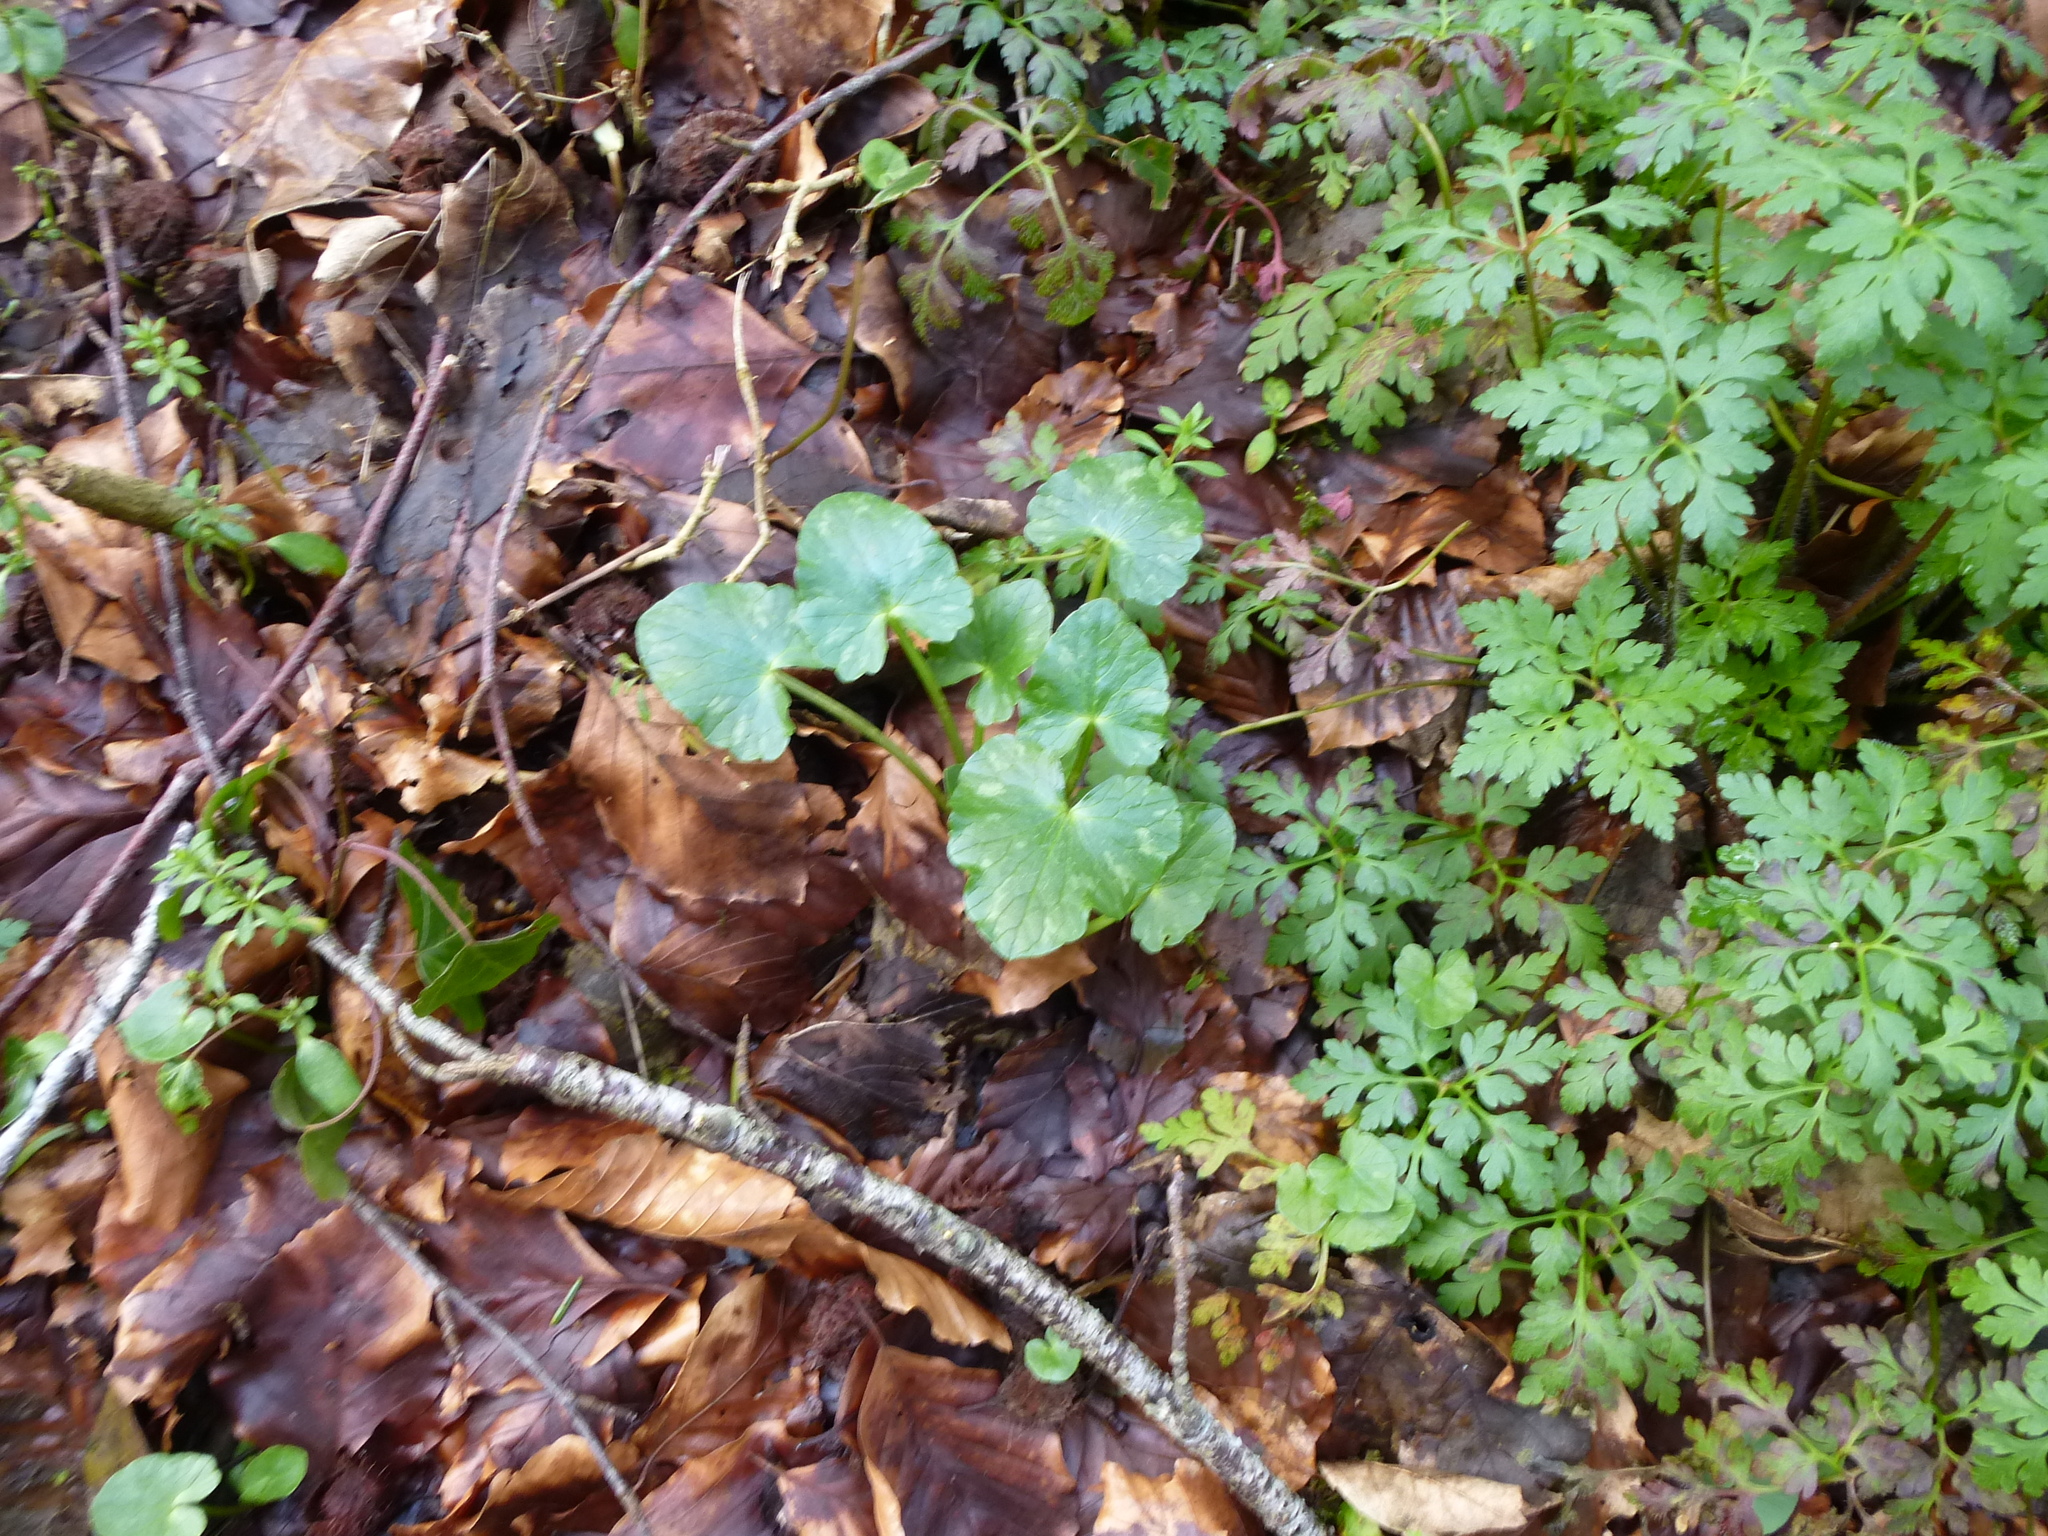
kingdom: Plantae
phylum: Tracheophyta
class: Magnoliopsida
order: Ranunculales
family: Ranunculaceae
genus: Ficaria
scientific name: Ficaria verna
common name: Lesser celandine
